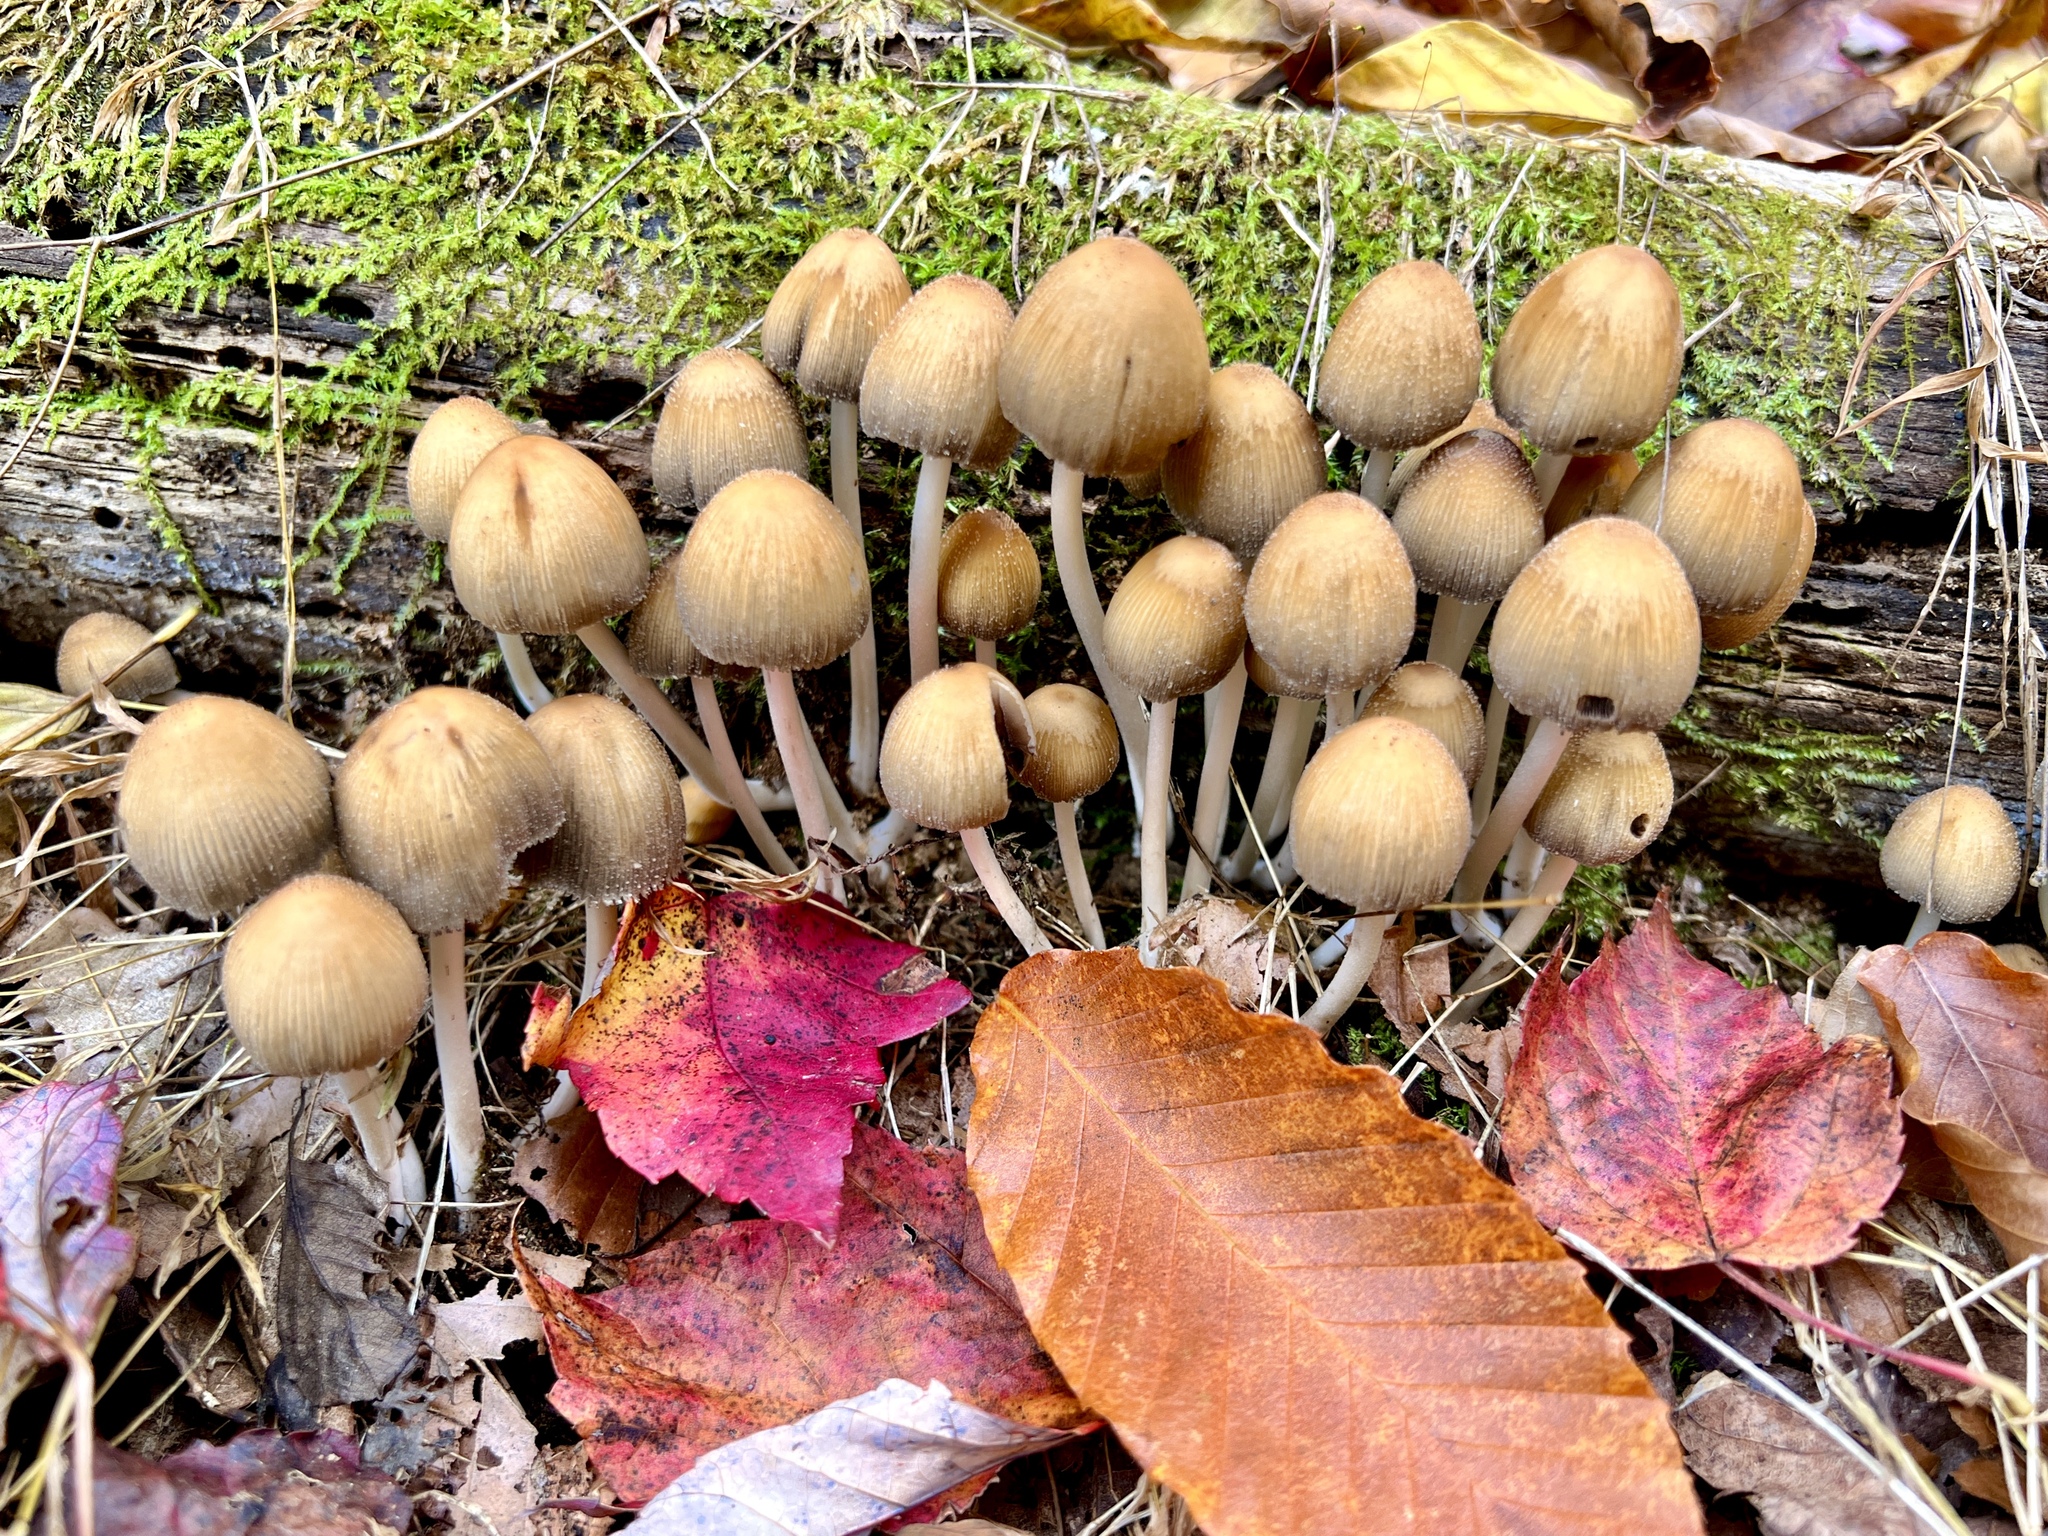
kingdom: Fungi
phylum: Basidiomycota
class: Agaricomycetes
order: Agaricales
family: Psathyrellaceae
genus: Coprinellus
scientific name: Coprinellus micaceus
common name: Glistening ink-cap
